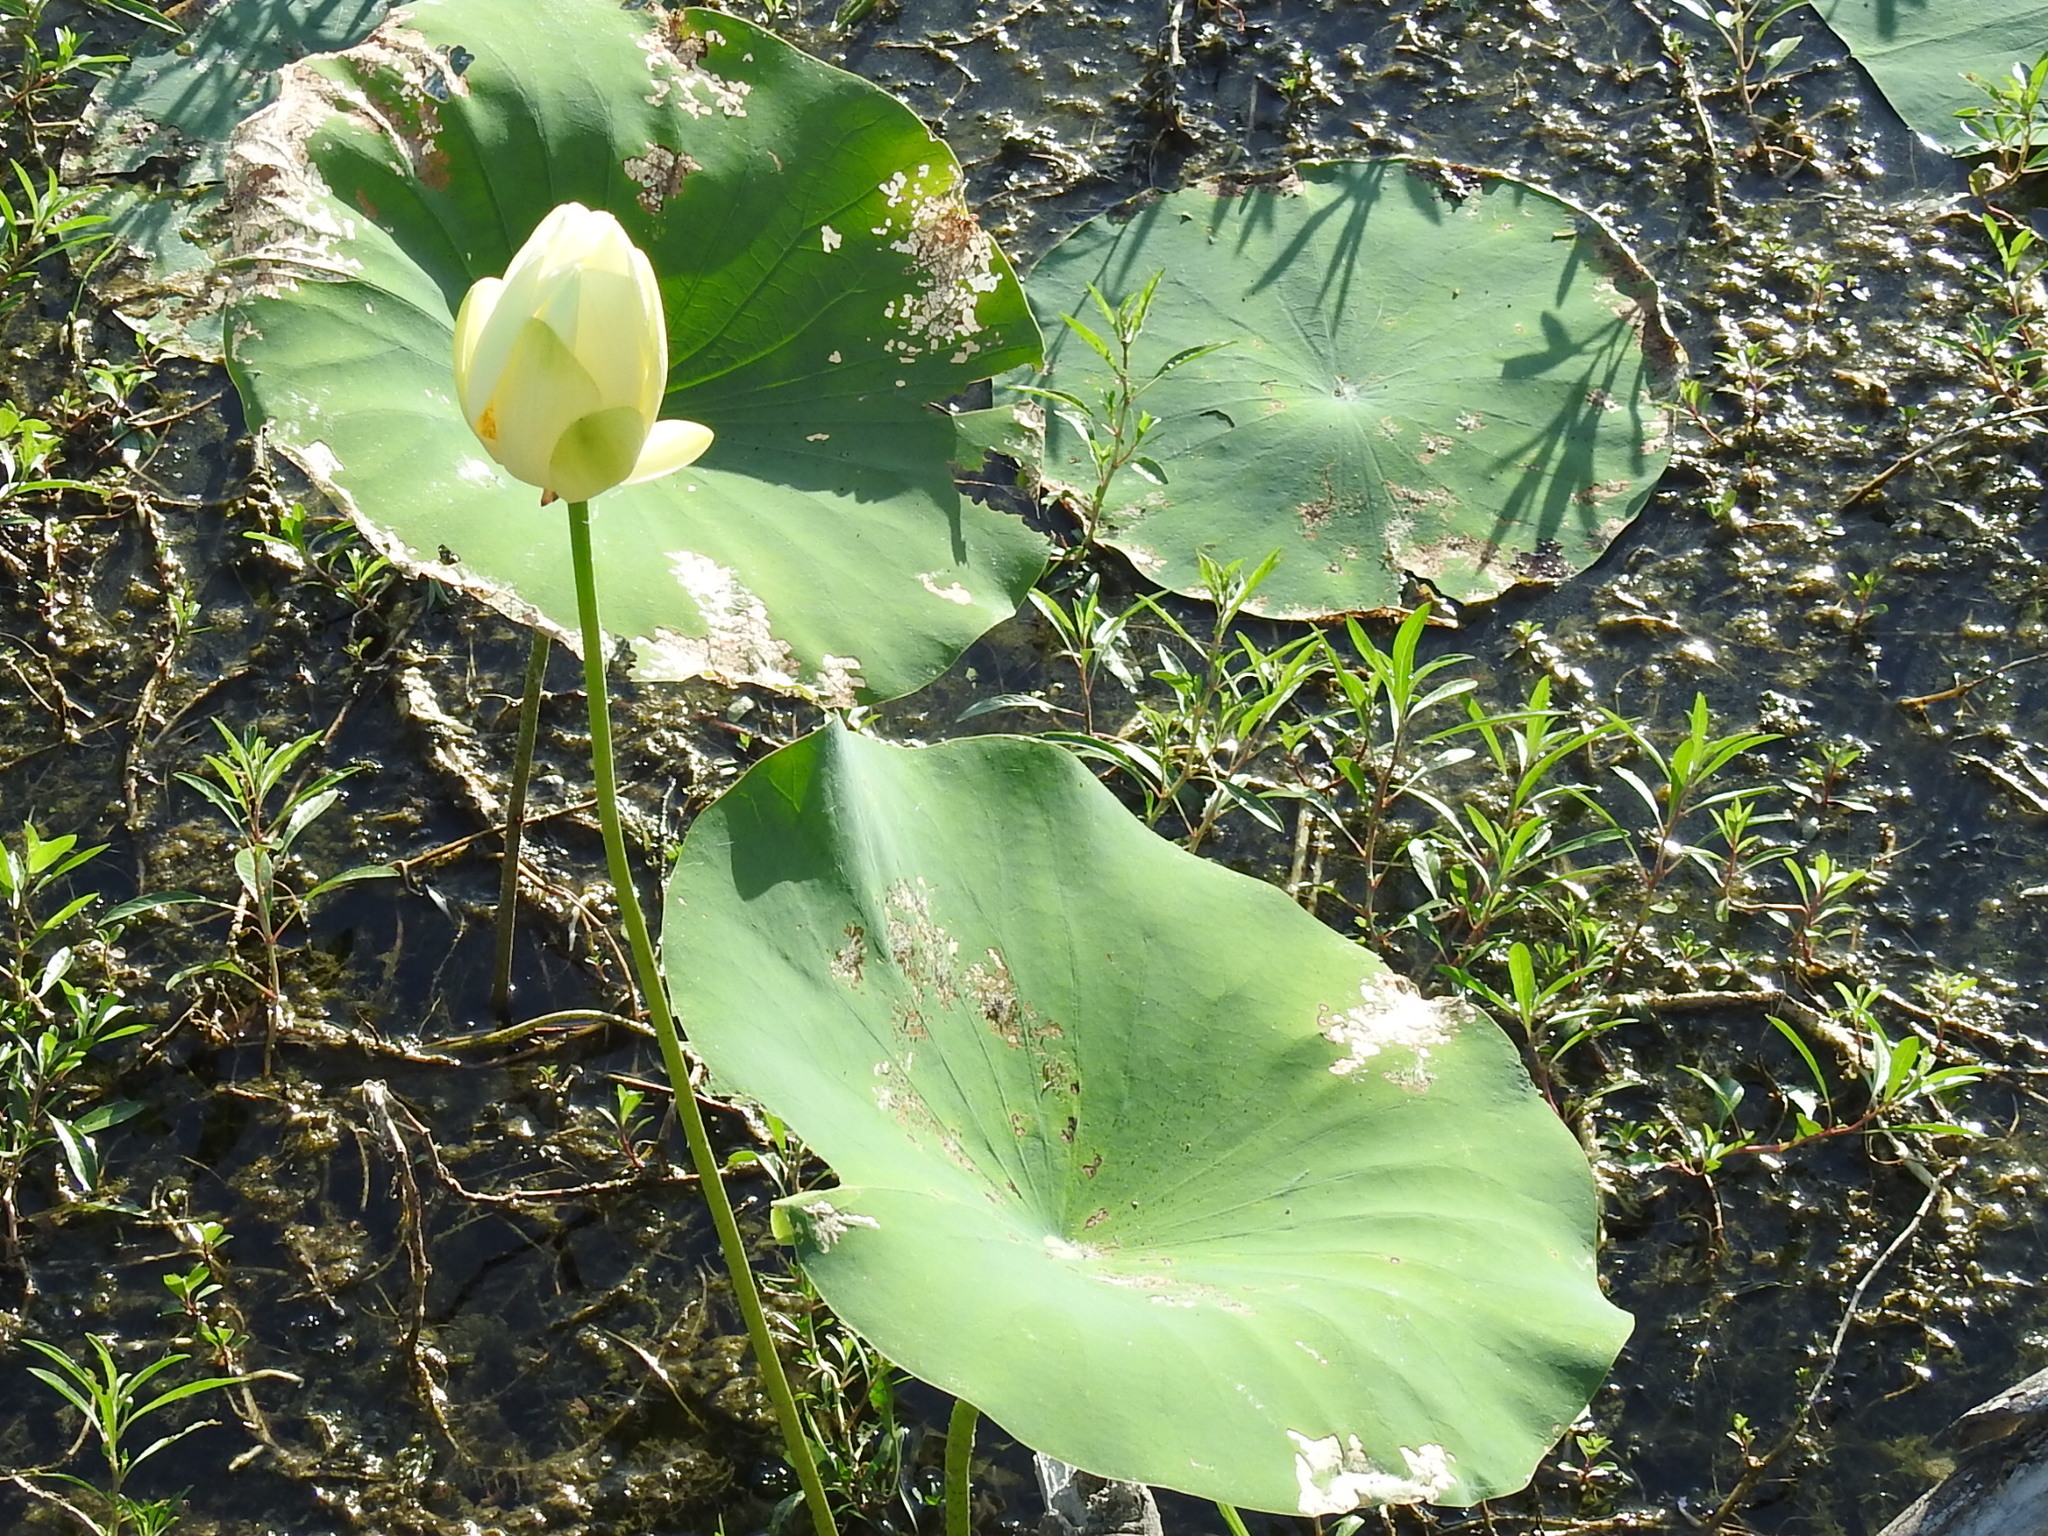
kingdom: Plantae
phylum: Tracheophyta
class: Magnoliopsida
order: Proteales
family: Nelumbonaceae
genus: Nelumbo
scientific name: Nelumbo lutea
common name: American lotus
